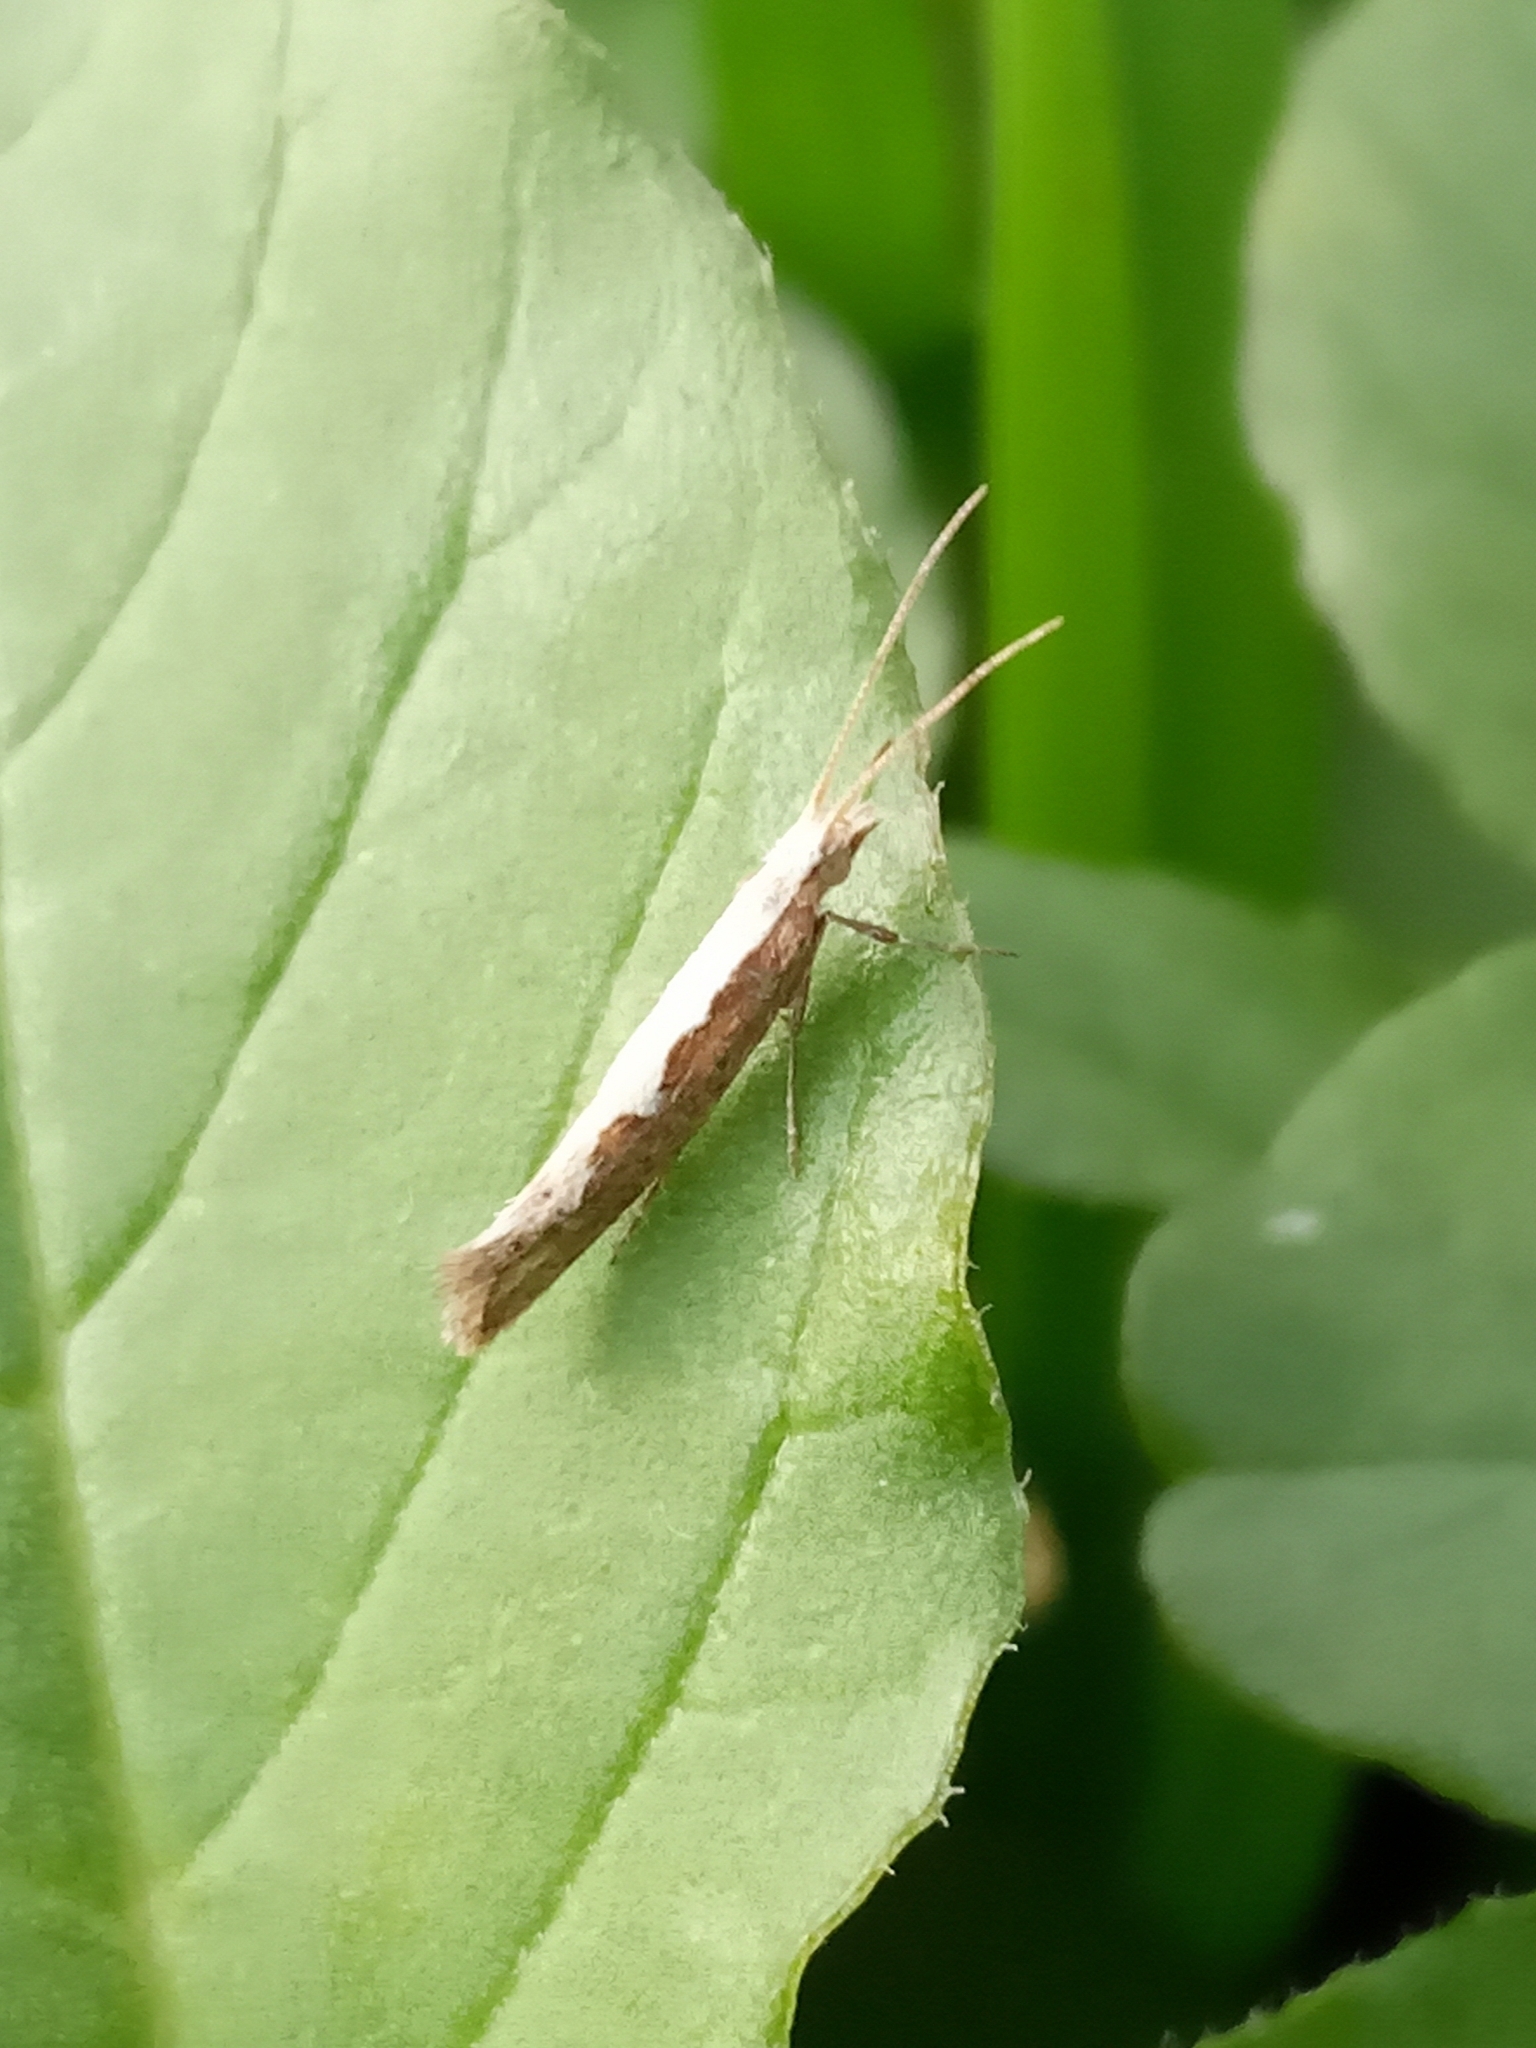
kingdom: Animalia
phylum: Arthropoda
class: Insecta
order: Lepidoptera
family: Plutellidae
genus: Plutella
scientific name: Plutella xylostella
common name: Diamond-back moth
